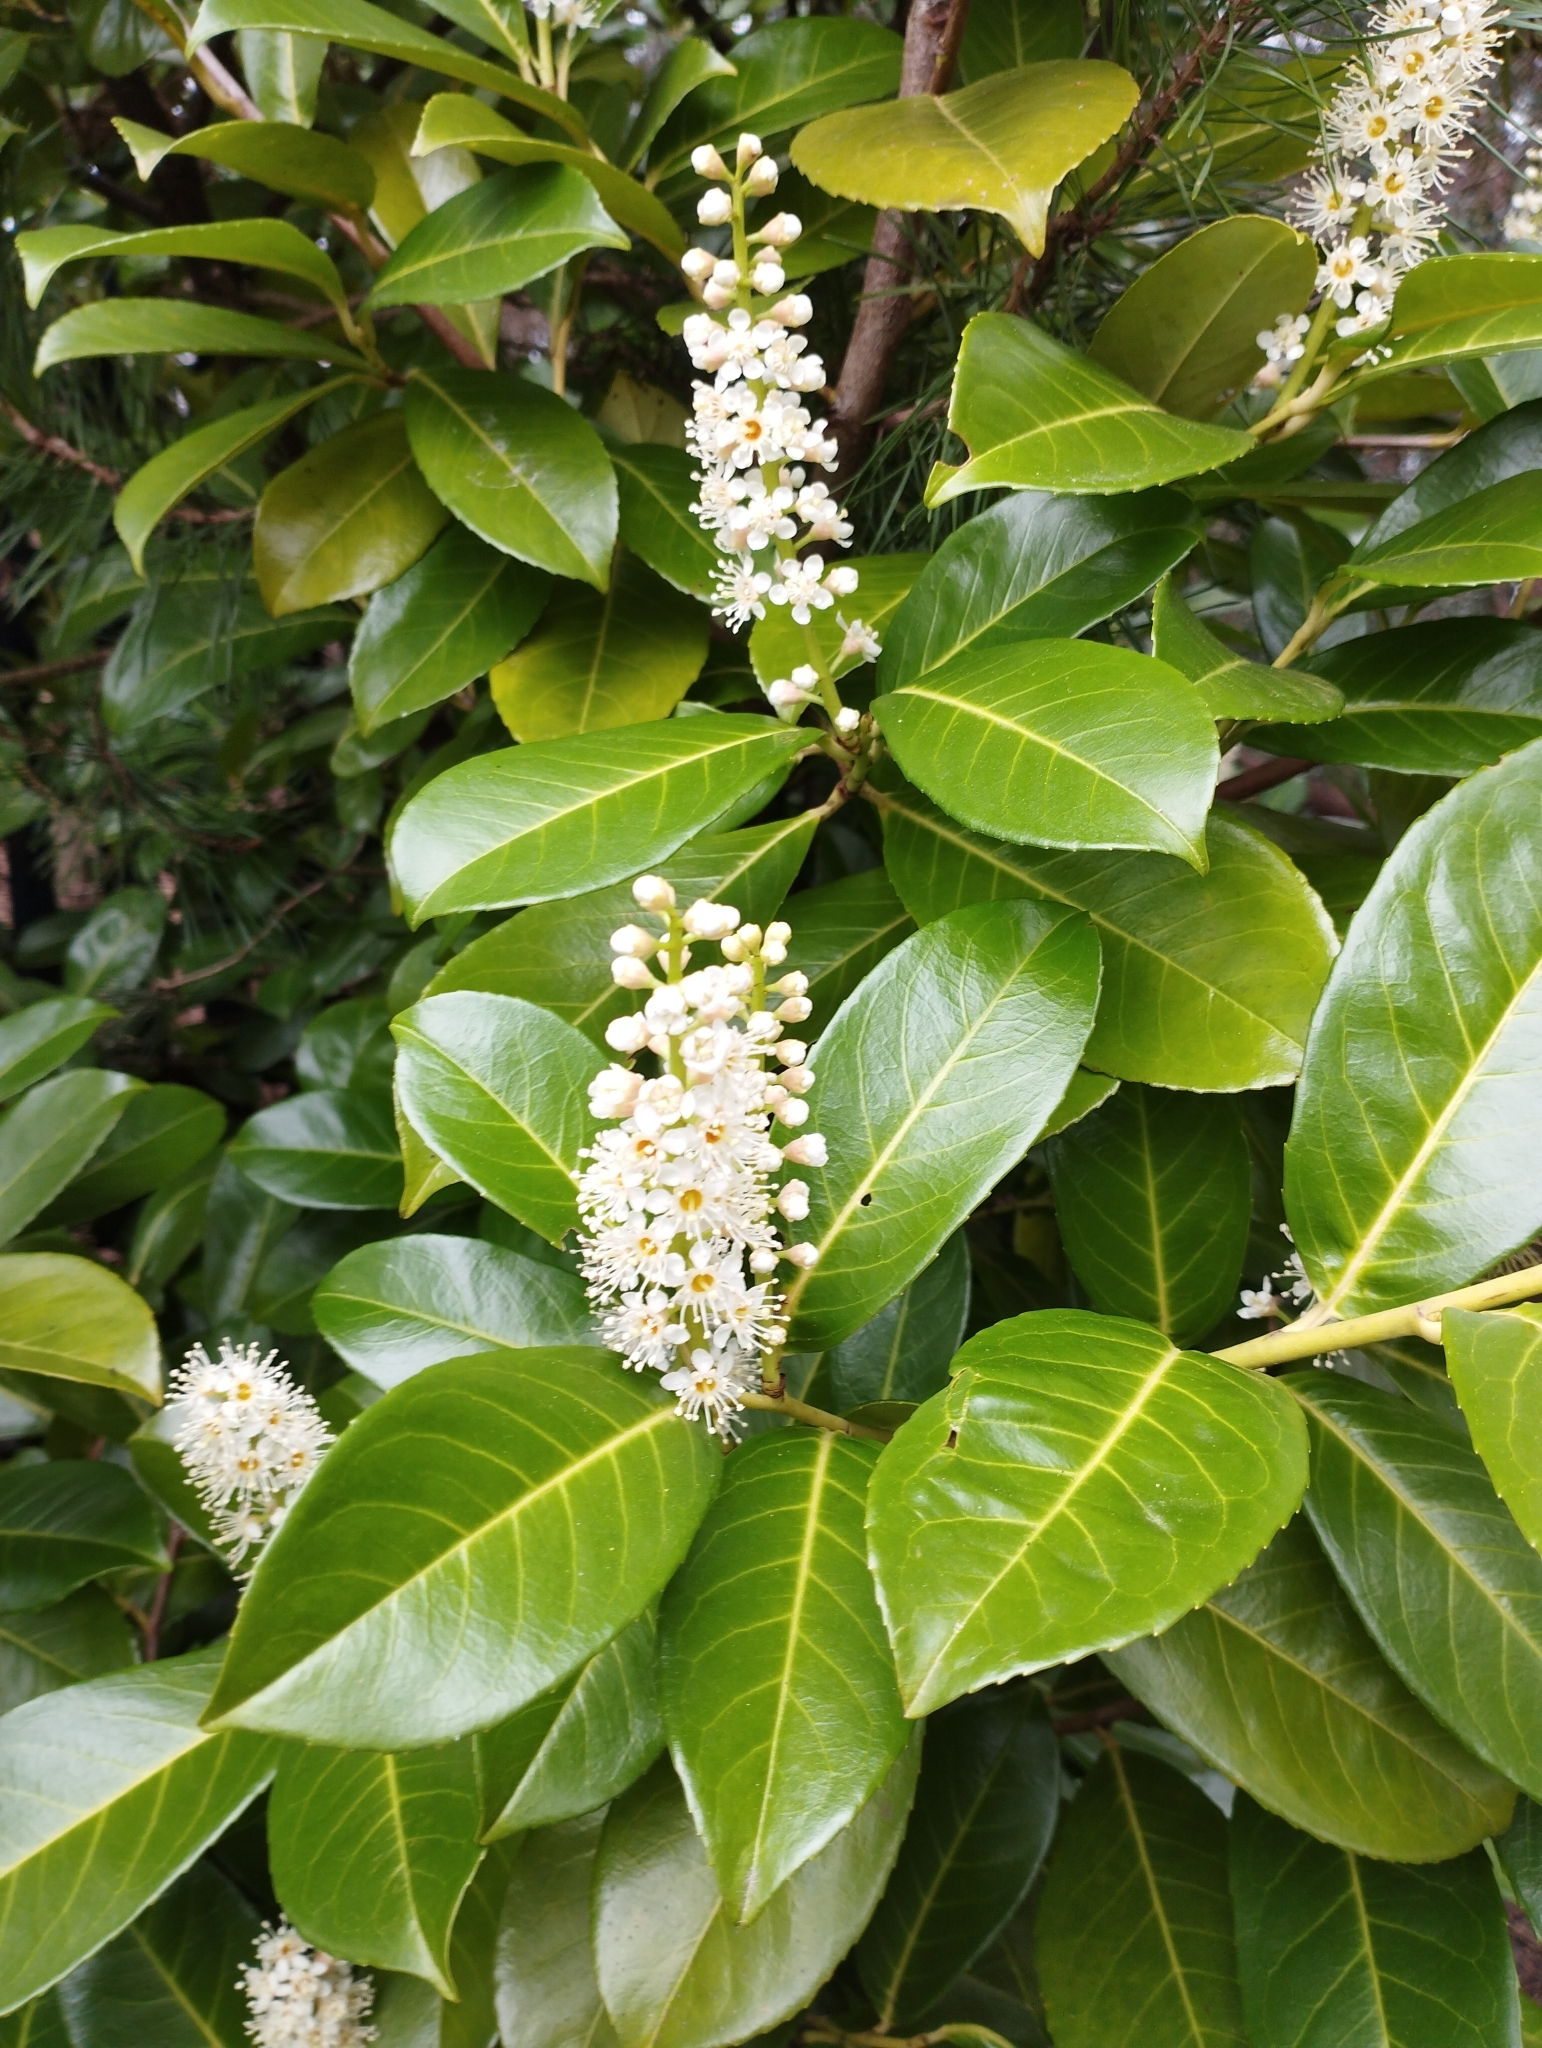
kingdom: Plantae
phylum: Tracheophyta
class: Magnoliopsida
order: Rosales
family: Rosaceae
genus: Prunus
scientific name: Prunus laurocerasus
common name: Cherry laurel
